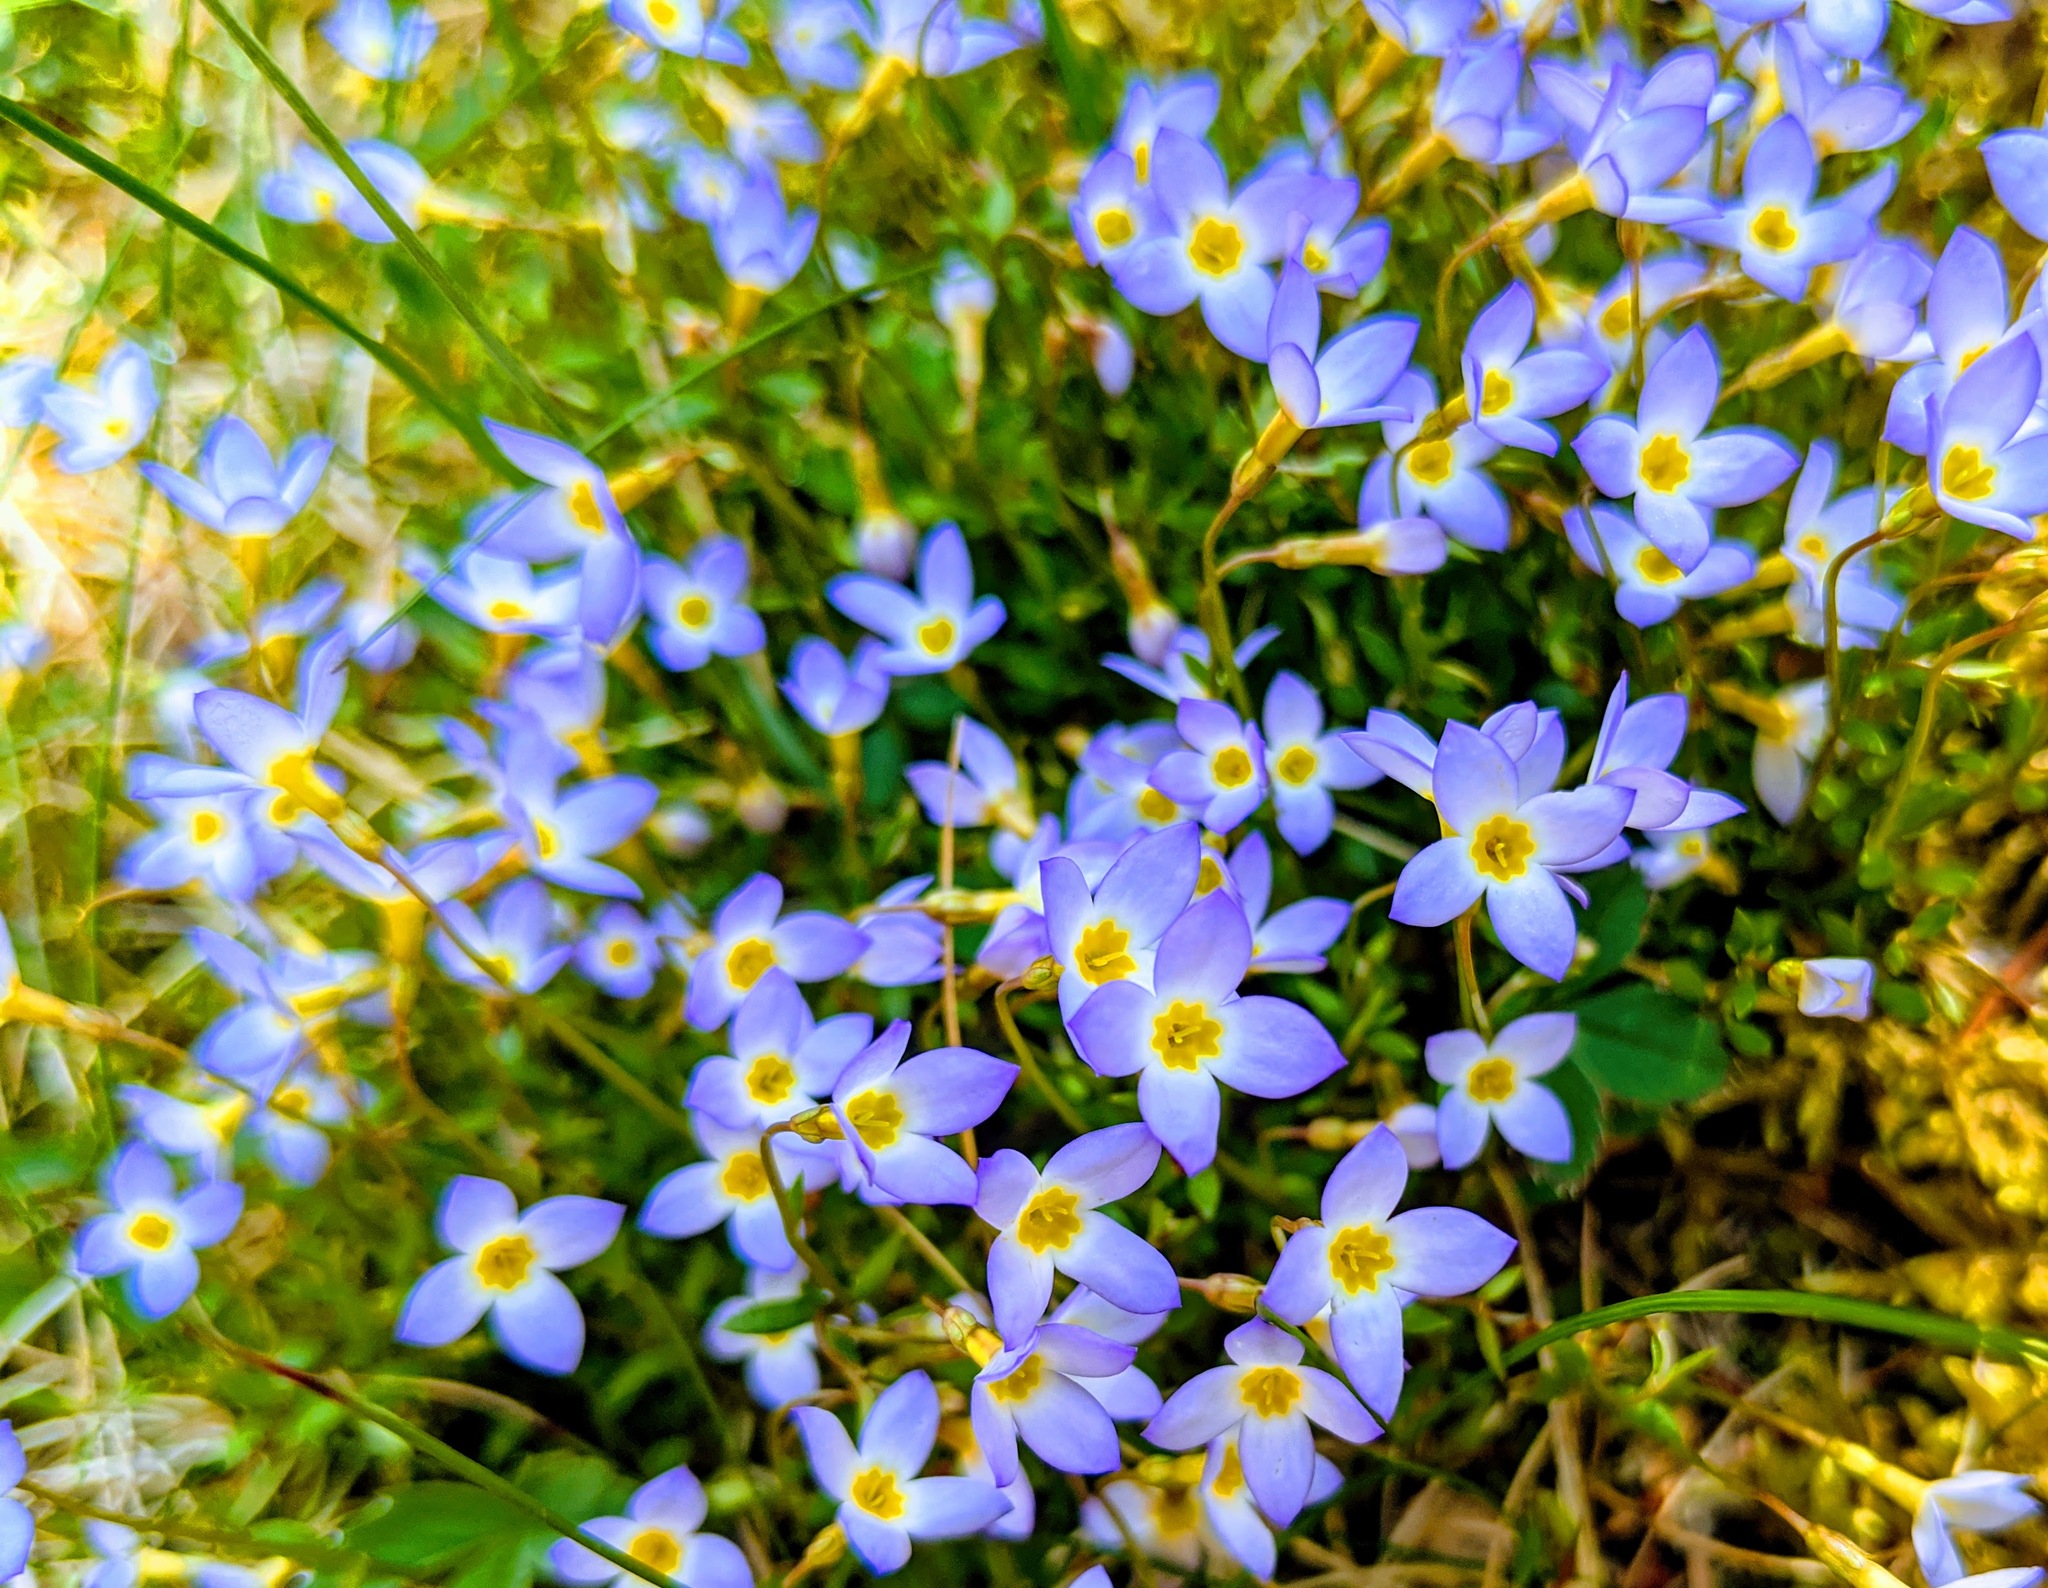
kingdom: Plantae
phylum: Tracheophyta
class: Magnoliopsida
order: Gentianales
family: Rubiaceae
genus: Houstonia
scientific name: Houstonia caerulea
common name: Bluets
